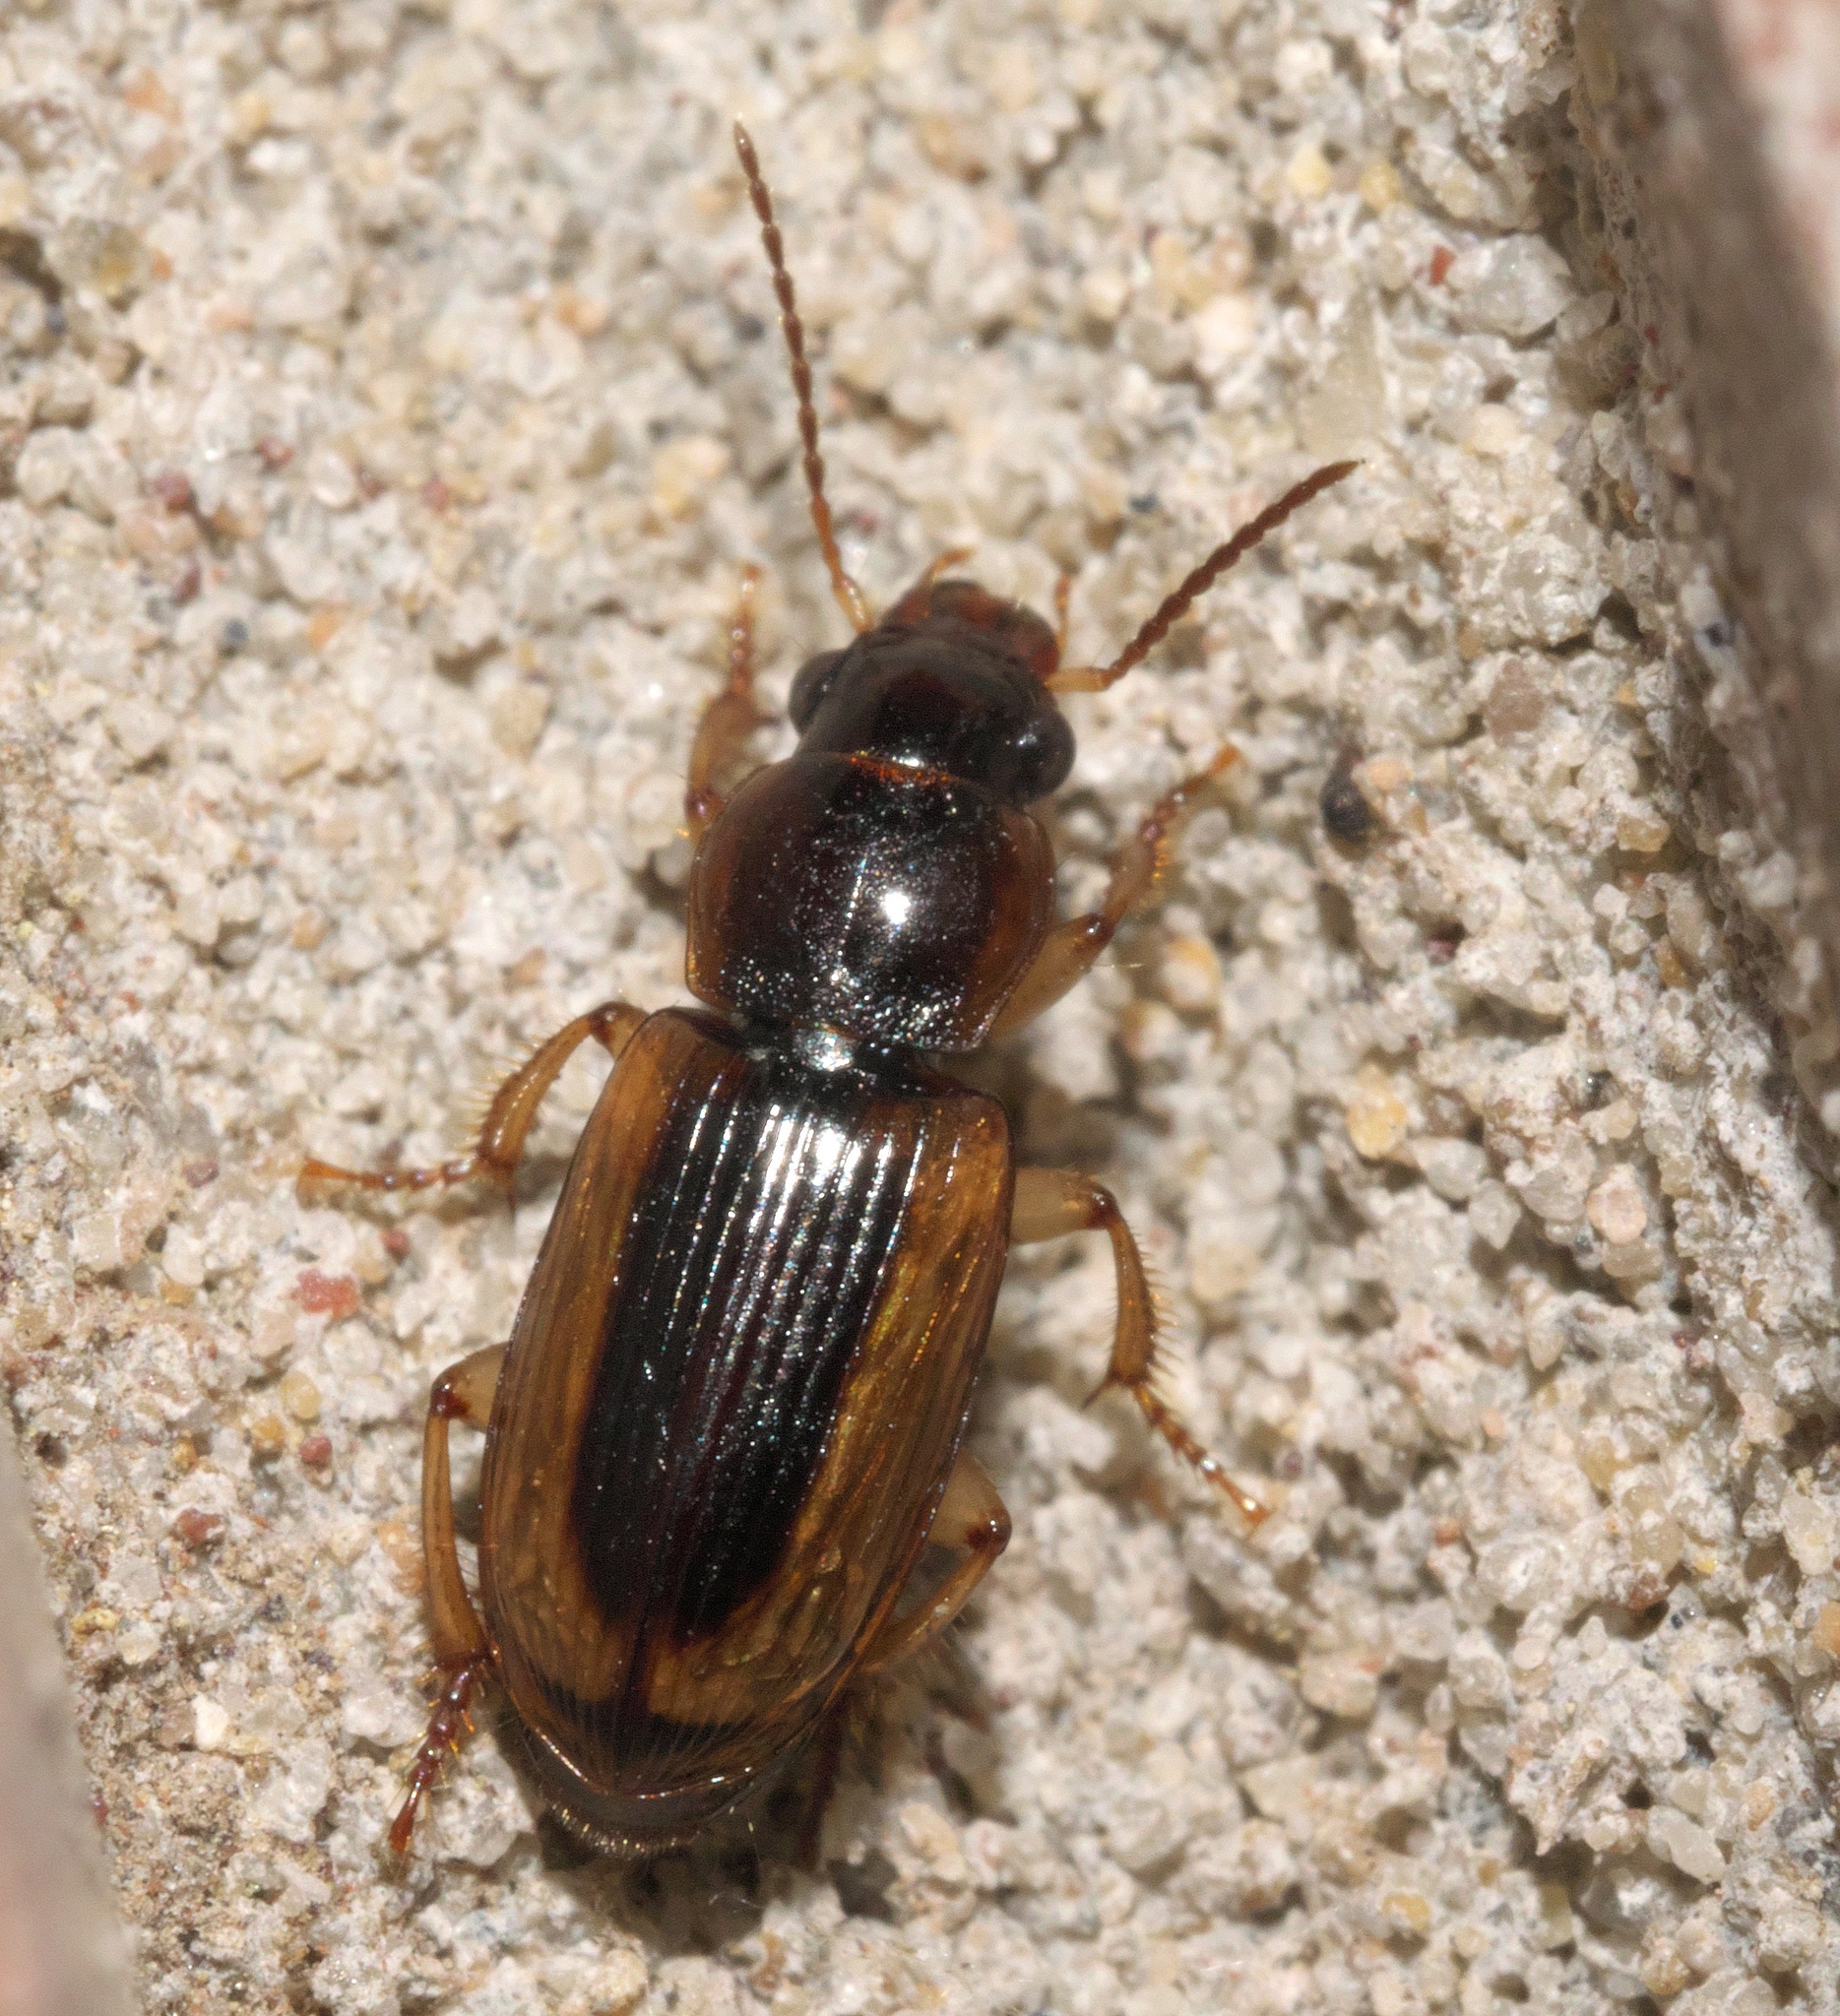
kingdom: Animalia
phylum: Arthropoda
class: Insecta
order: Coleoptera
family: Carabidae
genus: Stenolophus
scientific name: Stenolophus lecontei
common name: Leconte's seedcorn beetle
